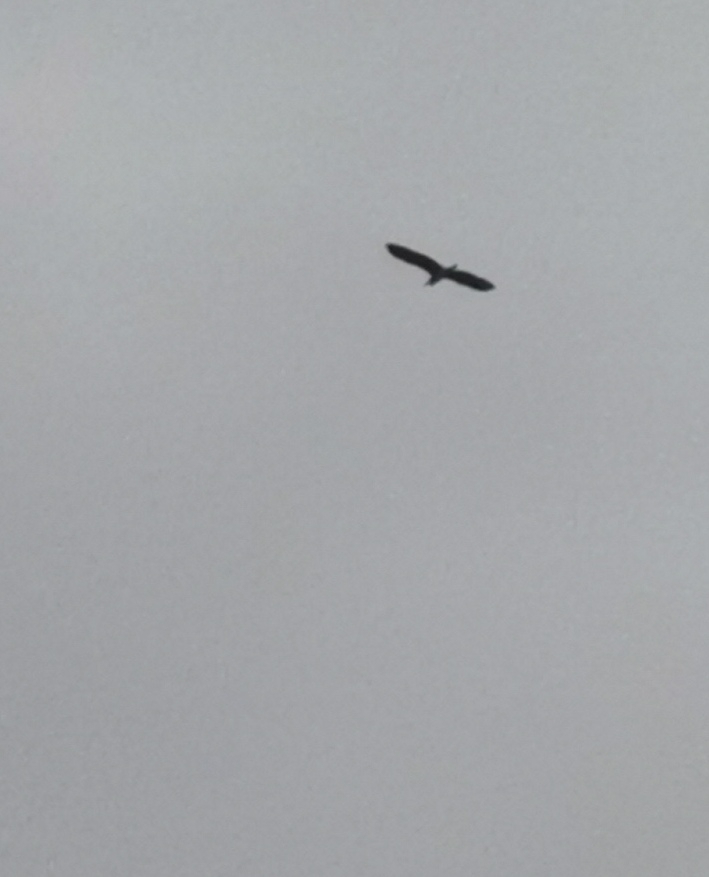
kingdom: Animalia
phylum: Chordata
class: Aves
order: Pelecaniformes
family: Ardeidae
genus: Ardea
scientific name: Ardea cinerea
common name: Grey heron
